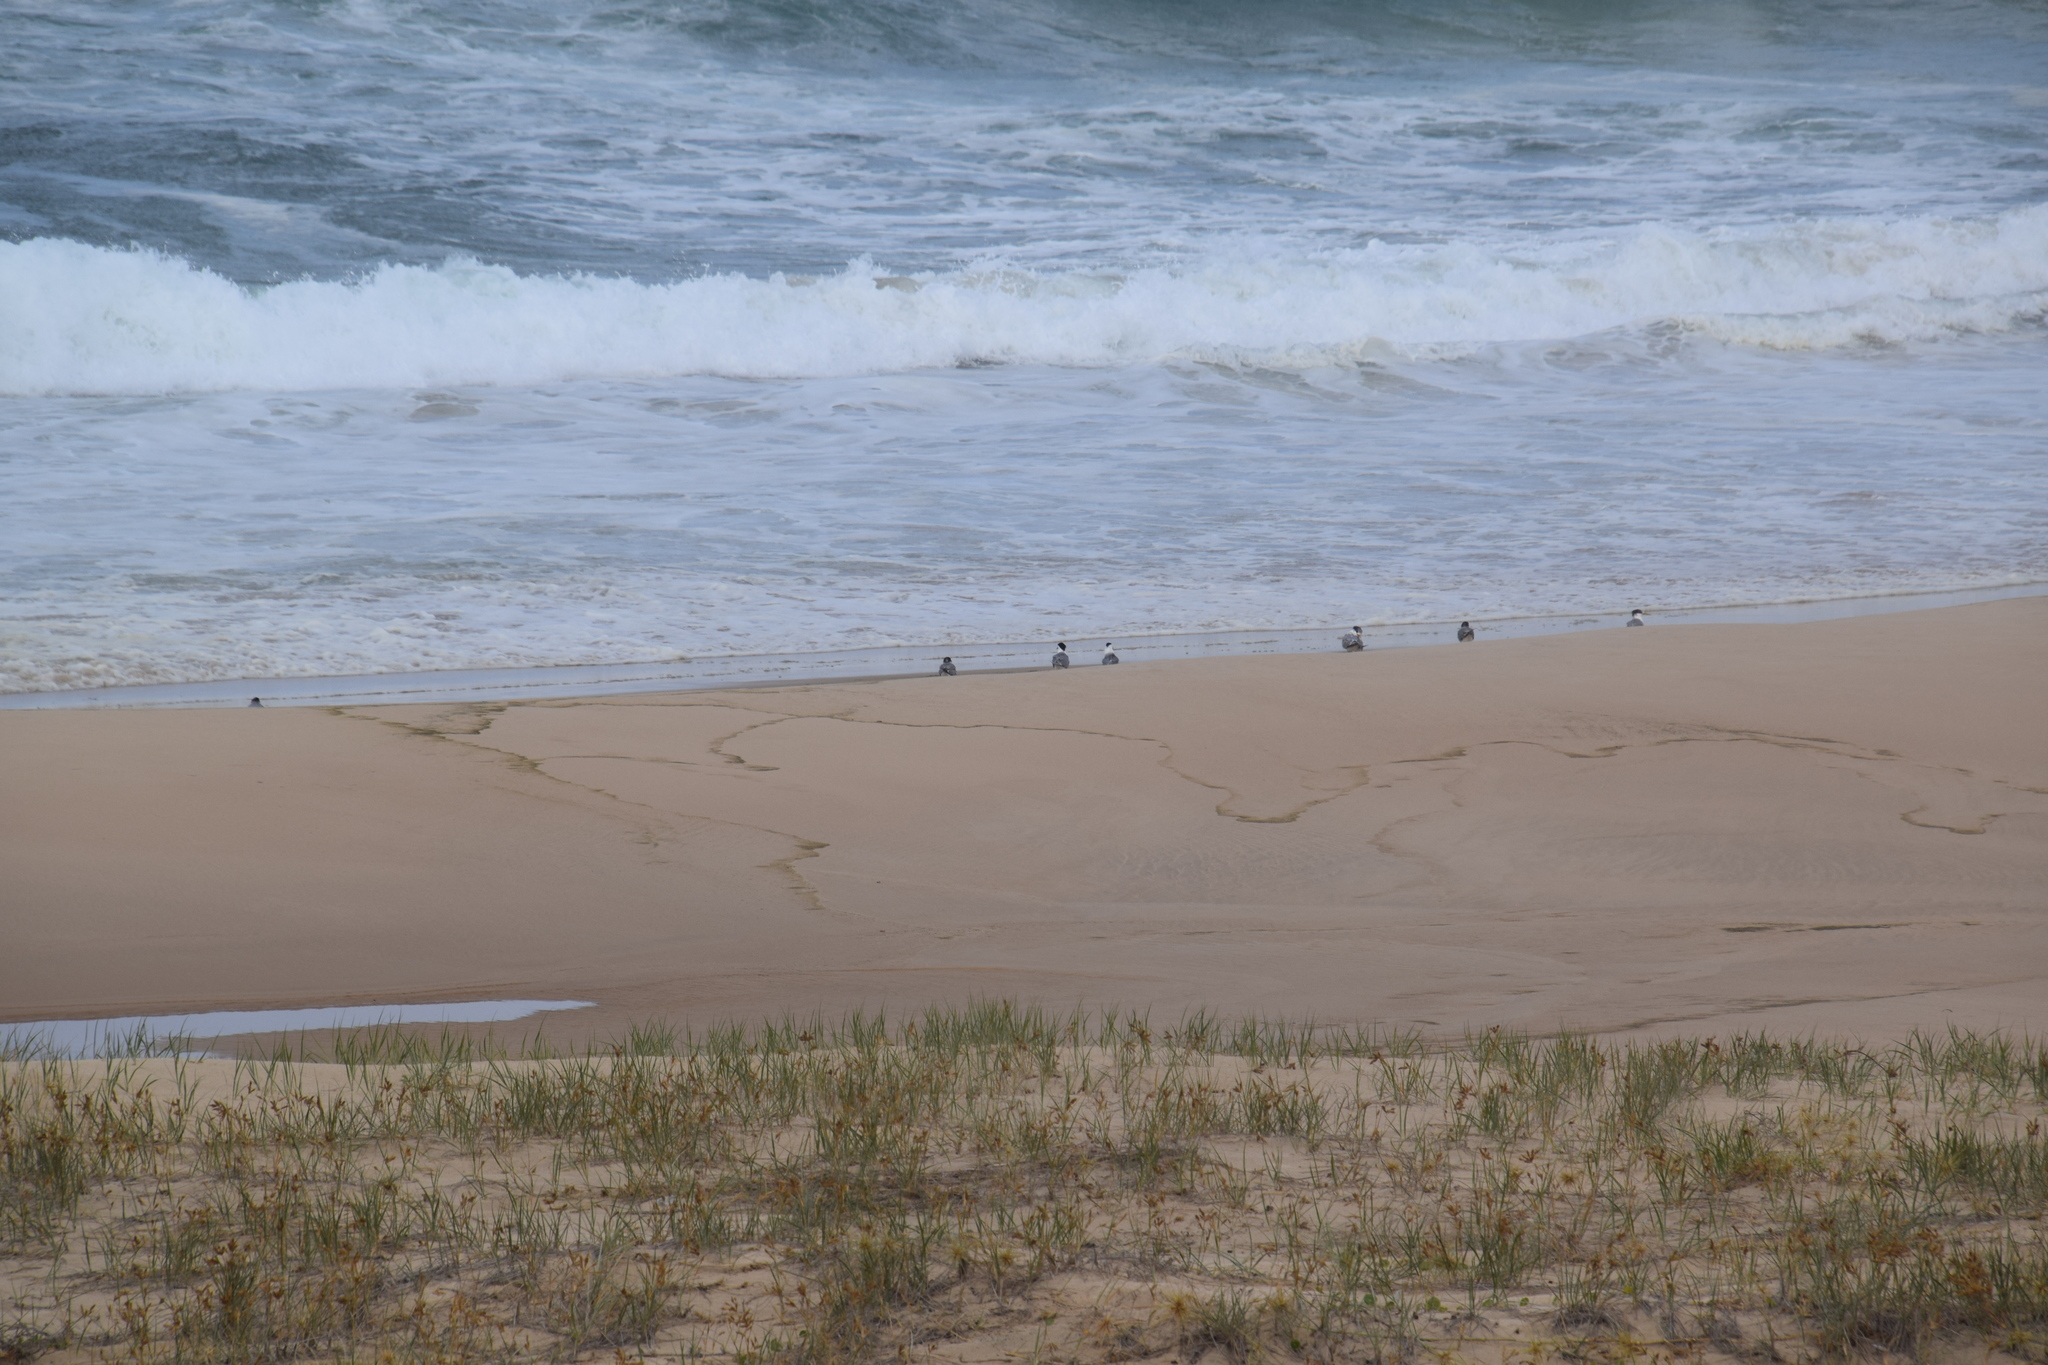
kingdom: Animalia
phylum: Chordata
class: Aves
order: Charadriiformes
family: Laridae
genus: Thalasseus
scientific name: Thalasseus bergii
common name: Greater crested tern
